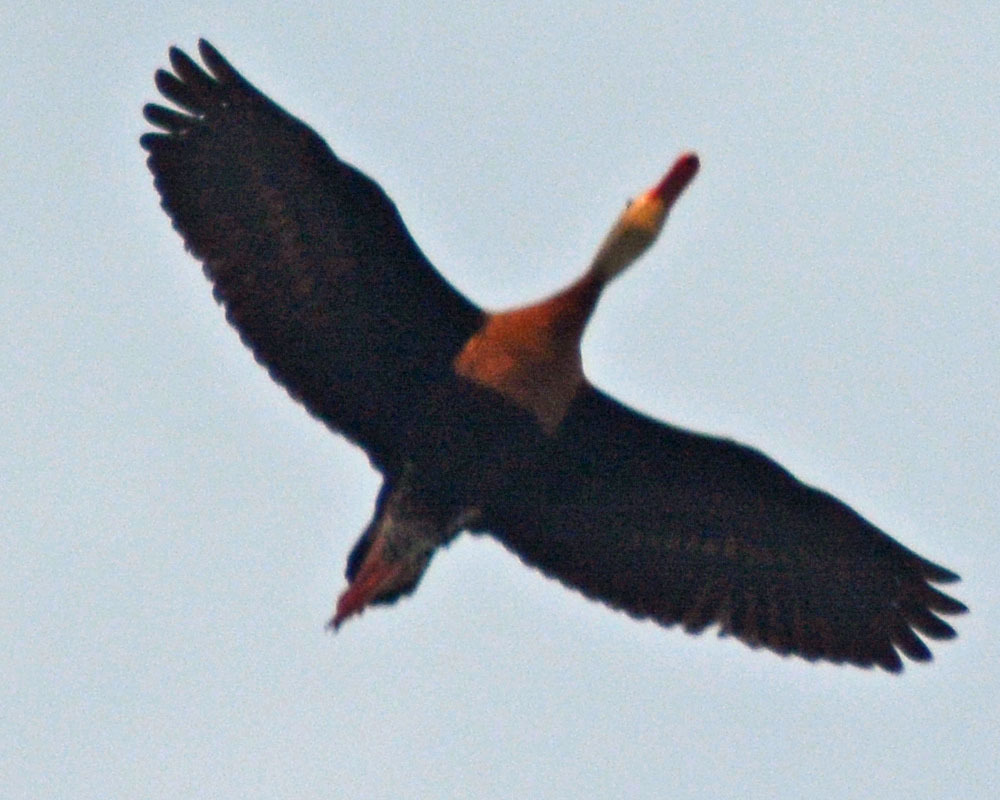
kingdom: Animalia
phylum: Chordata
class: Aves
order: Anseriformes
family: Anatidae
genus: Dendrocygna
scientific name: Dendrocygna autumnalis
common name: Black-bellied whistling duck
